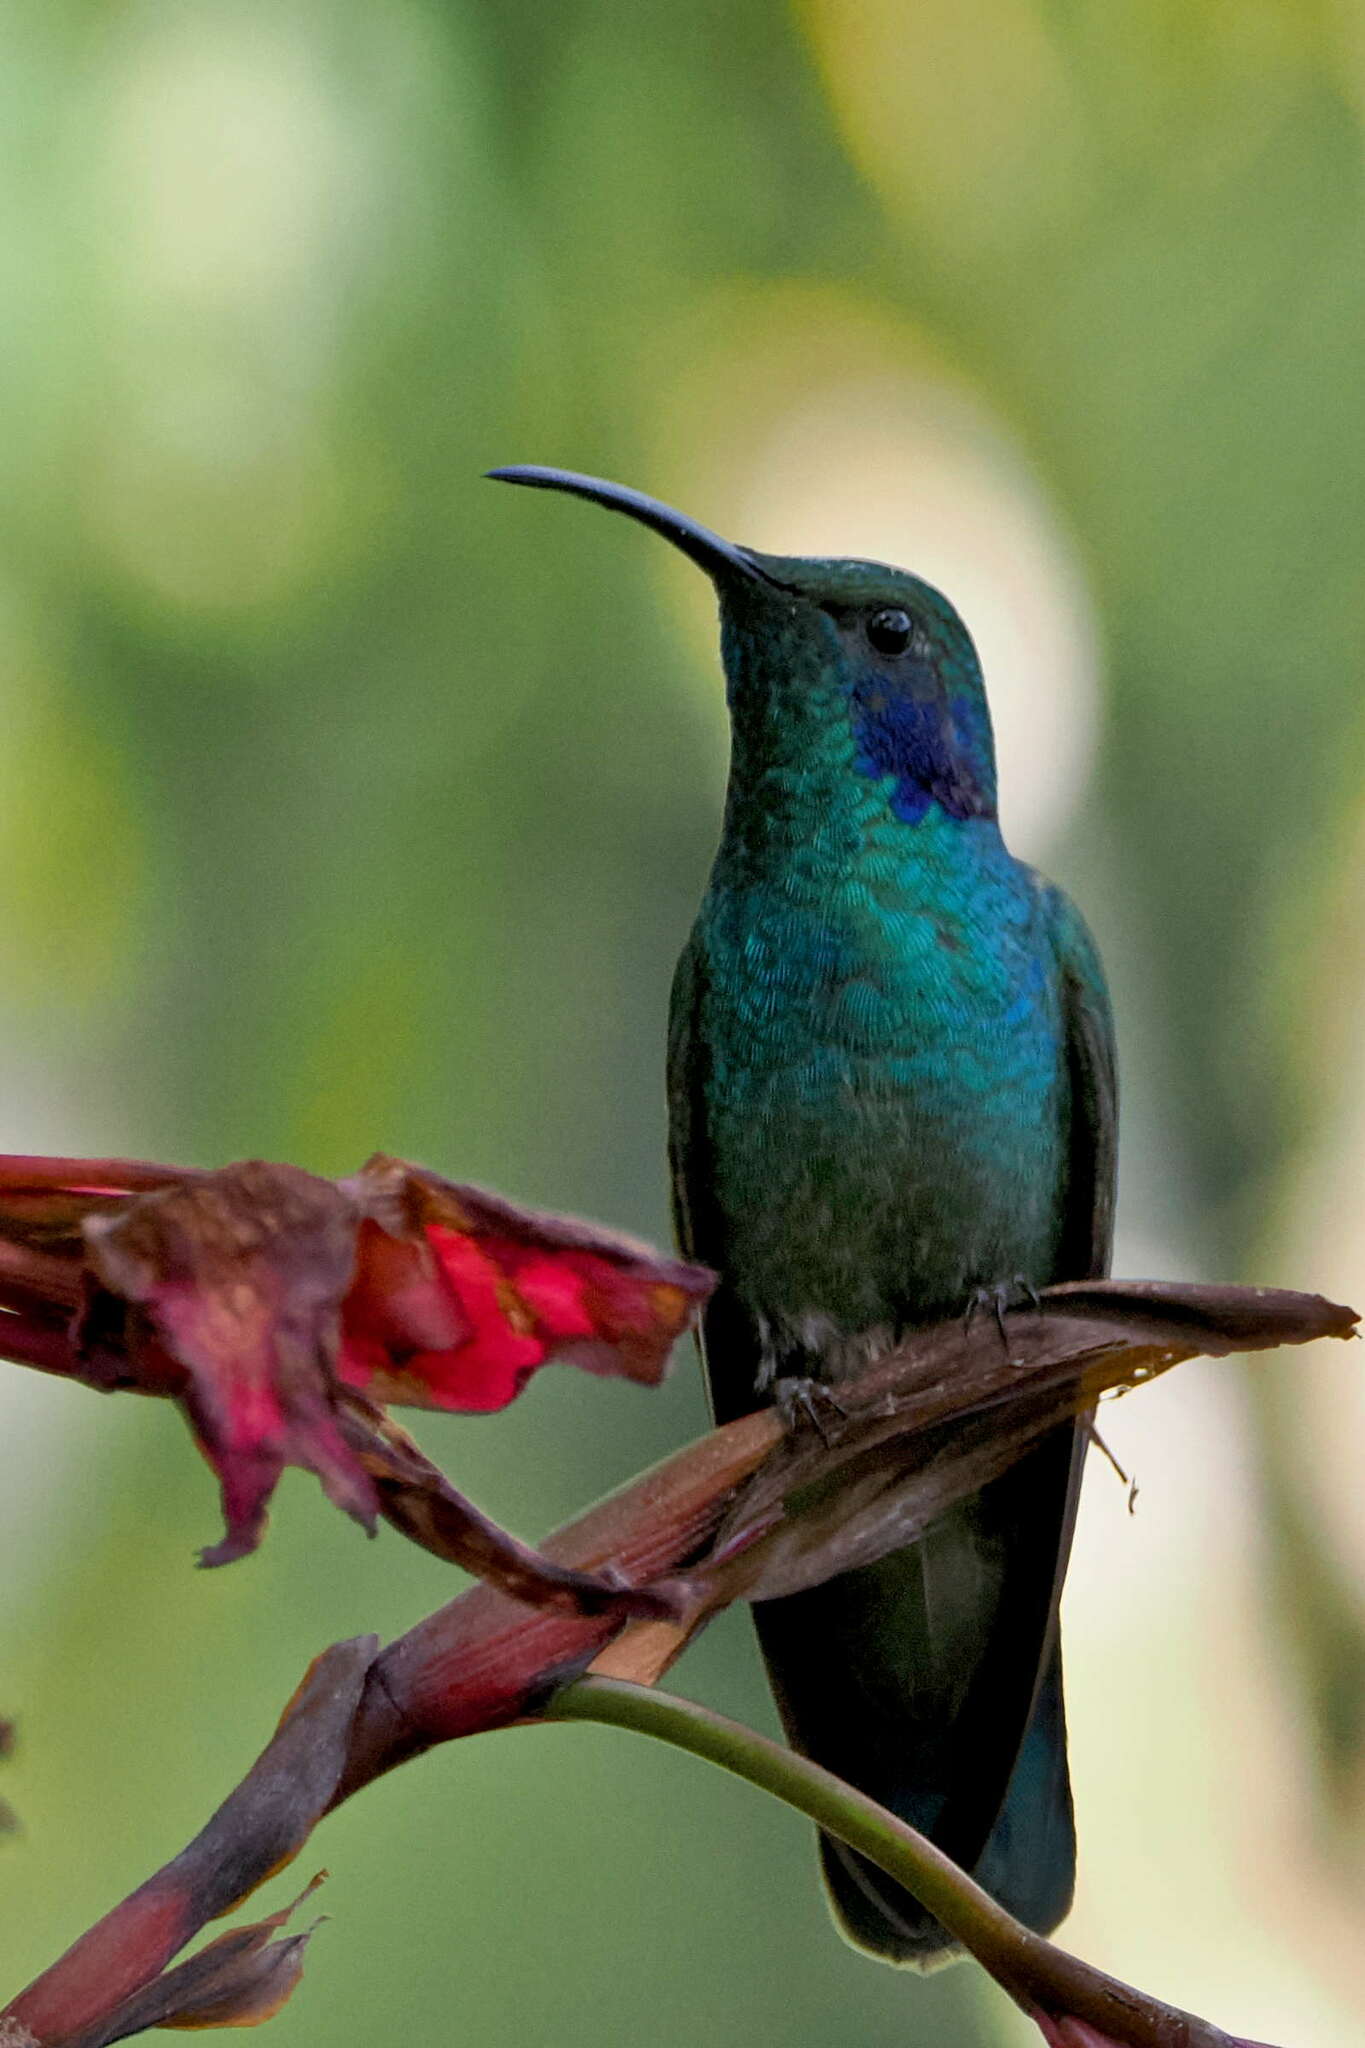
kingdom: Animalia
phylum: Chordata
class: Aves
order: Apodiformes
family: Trochilidae
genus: Colibri
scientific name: Colibri cyanotus
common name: Lesser violetear
